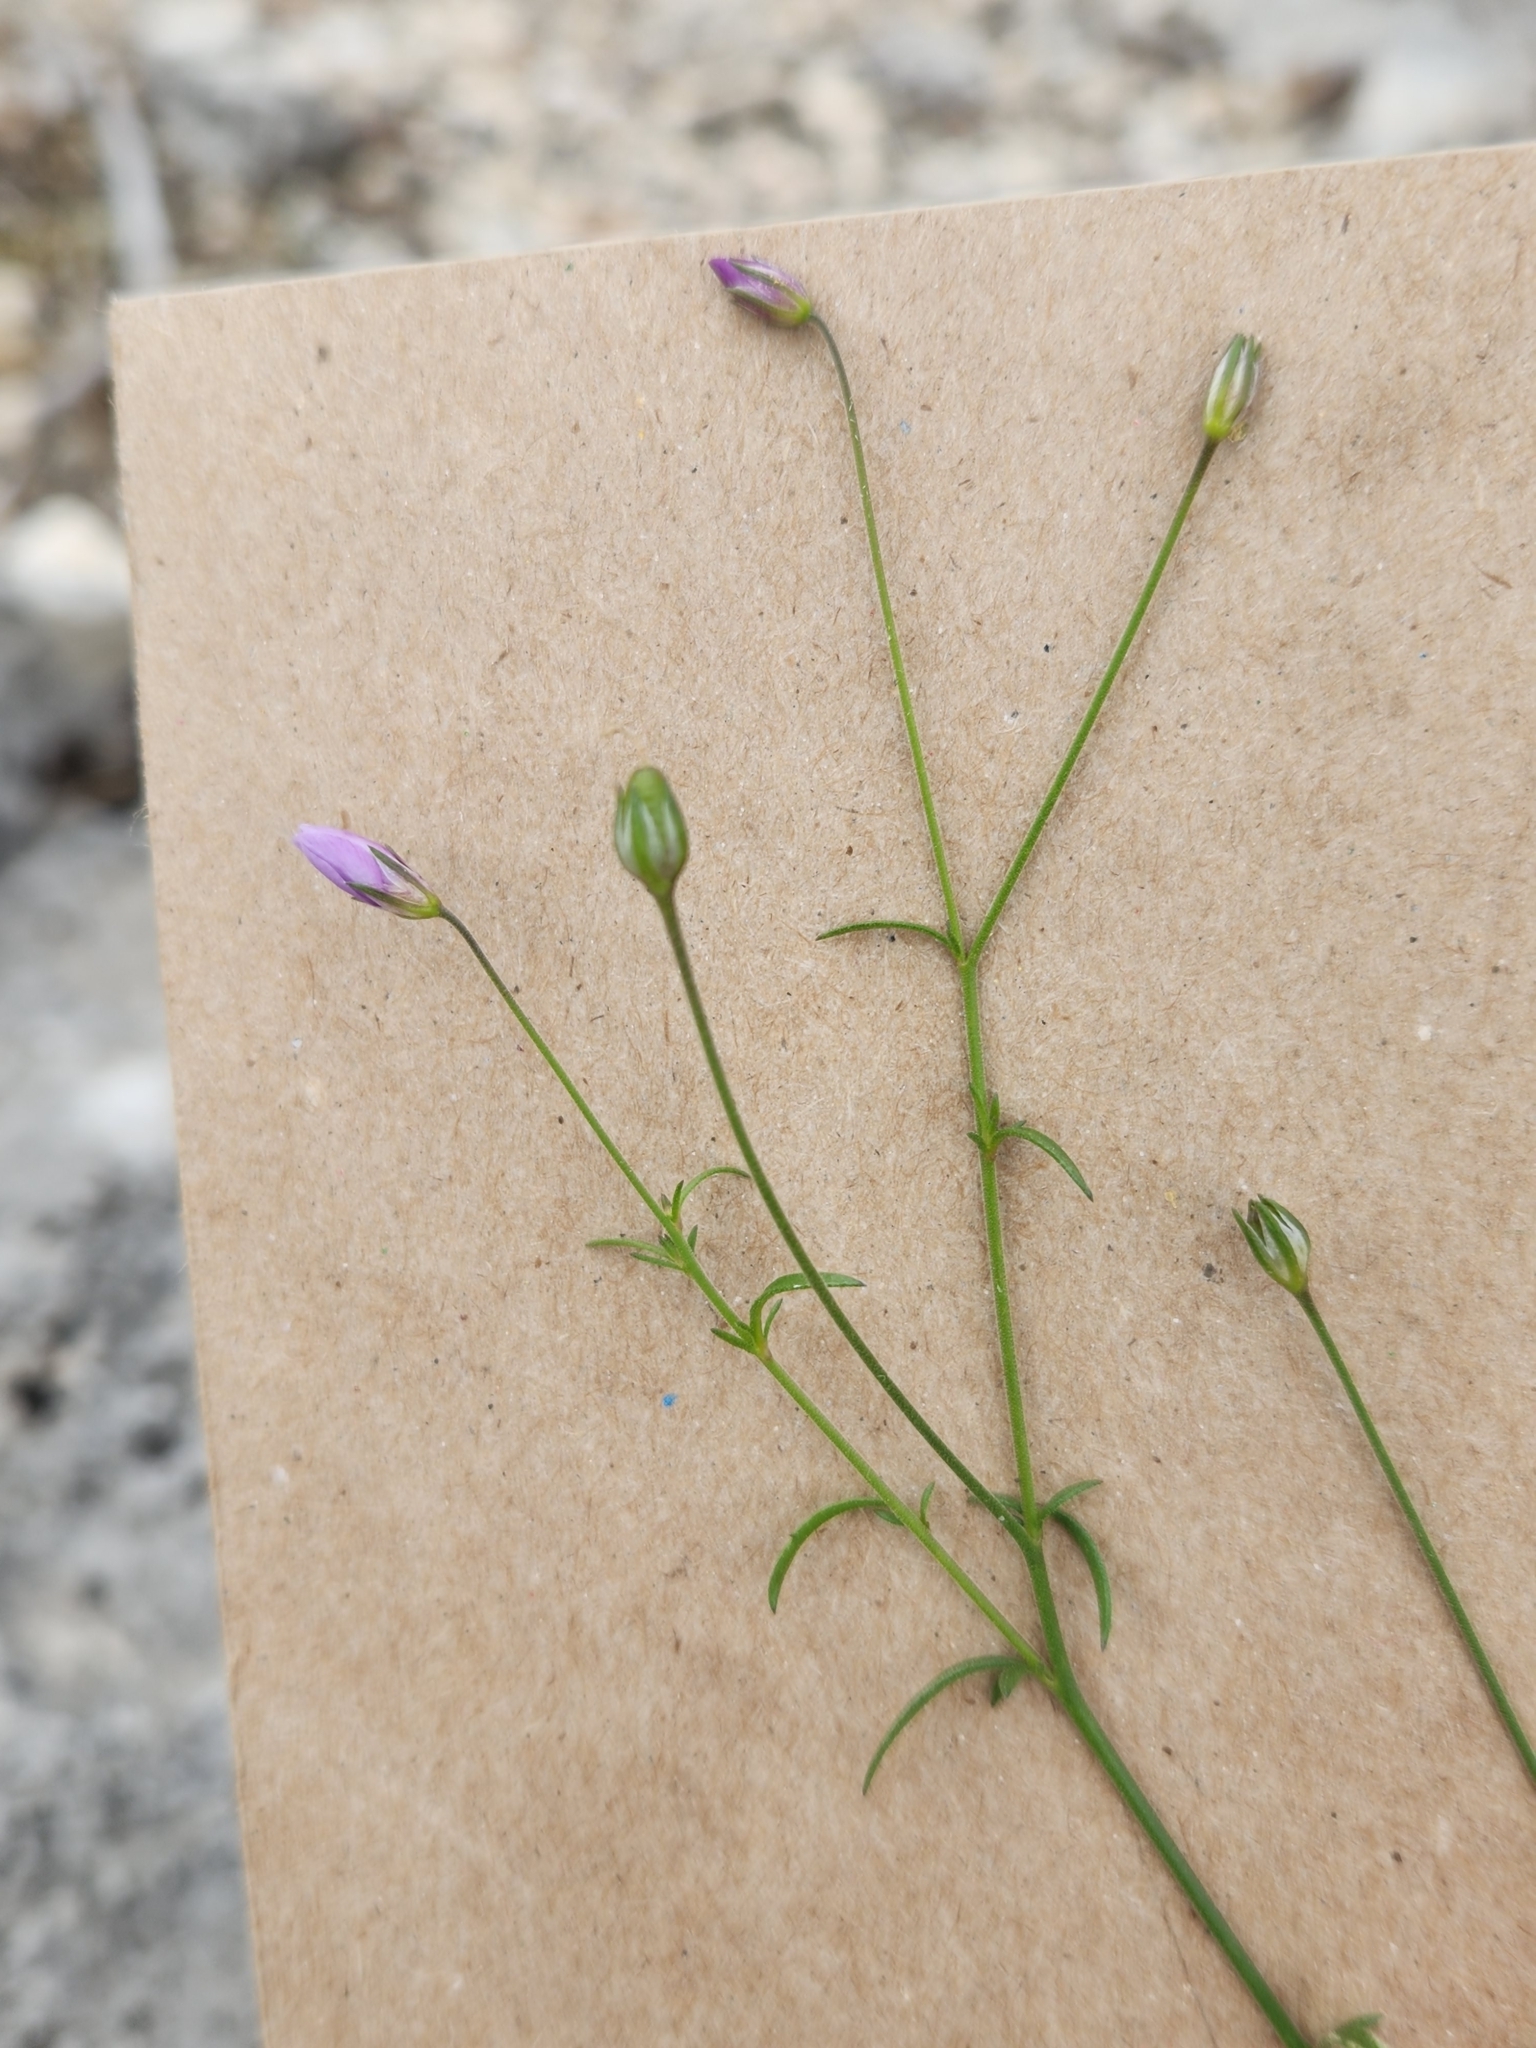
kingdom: Plantae
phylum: Tracheophyta
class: Magnoliopsida
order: Ericales
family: Polemoniaceae
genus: Giliastrum
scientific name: Giliastrum incisum
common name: Splitleaf gilia
